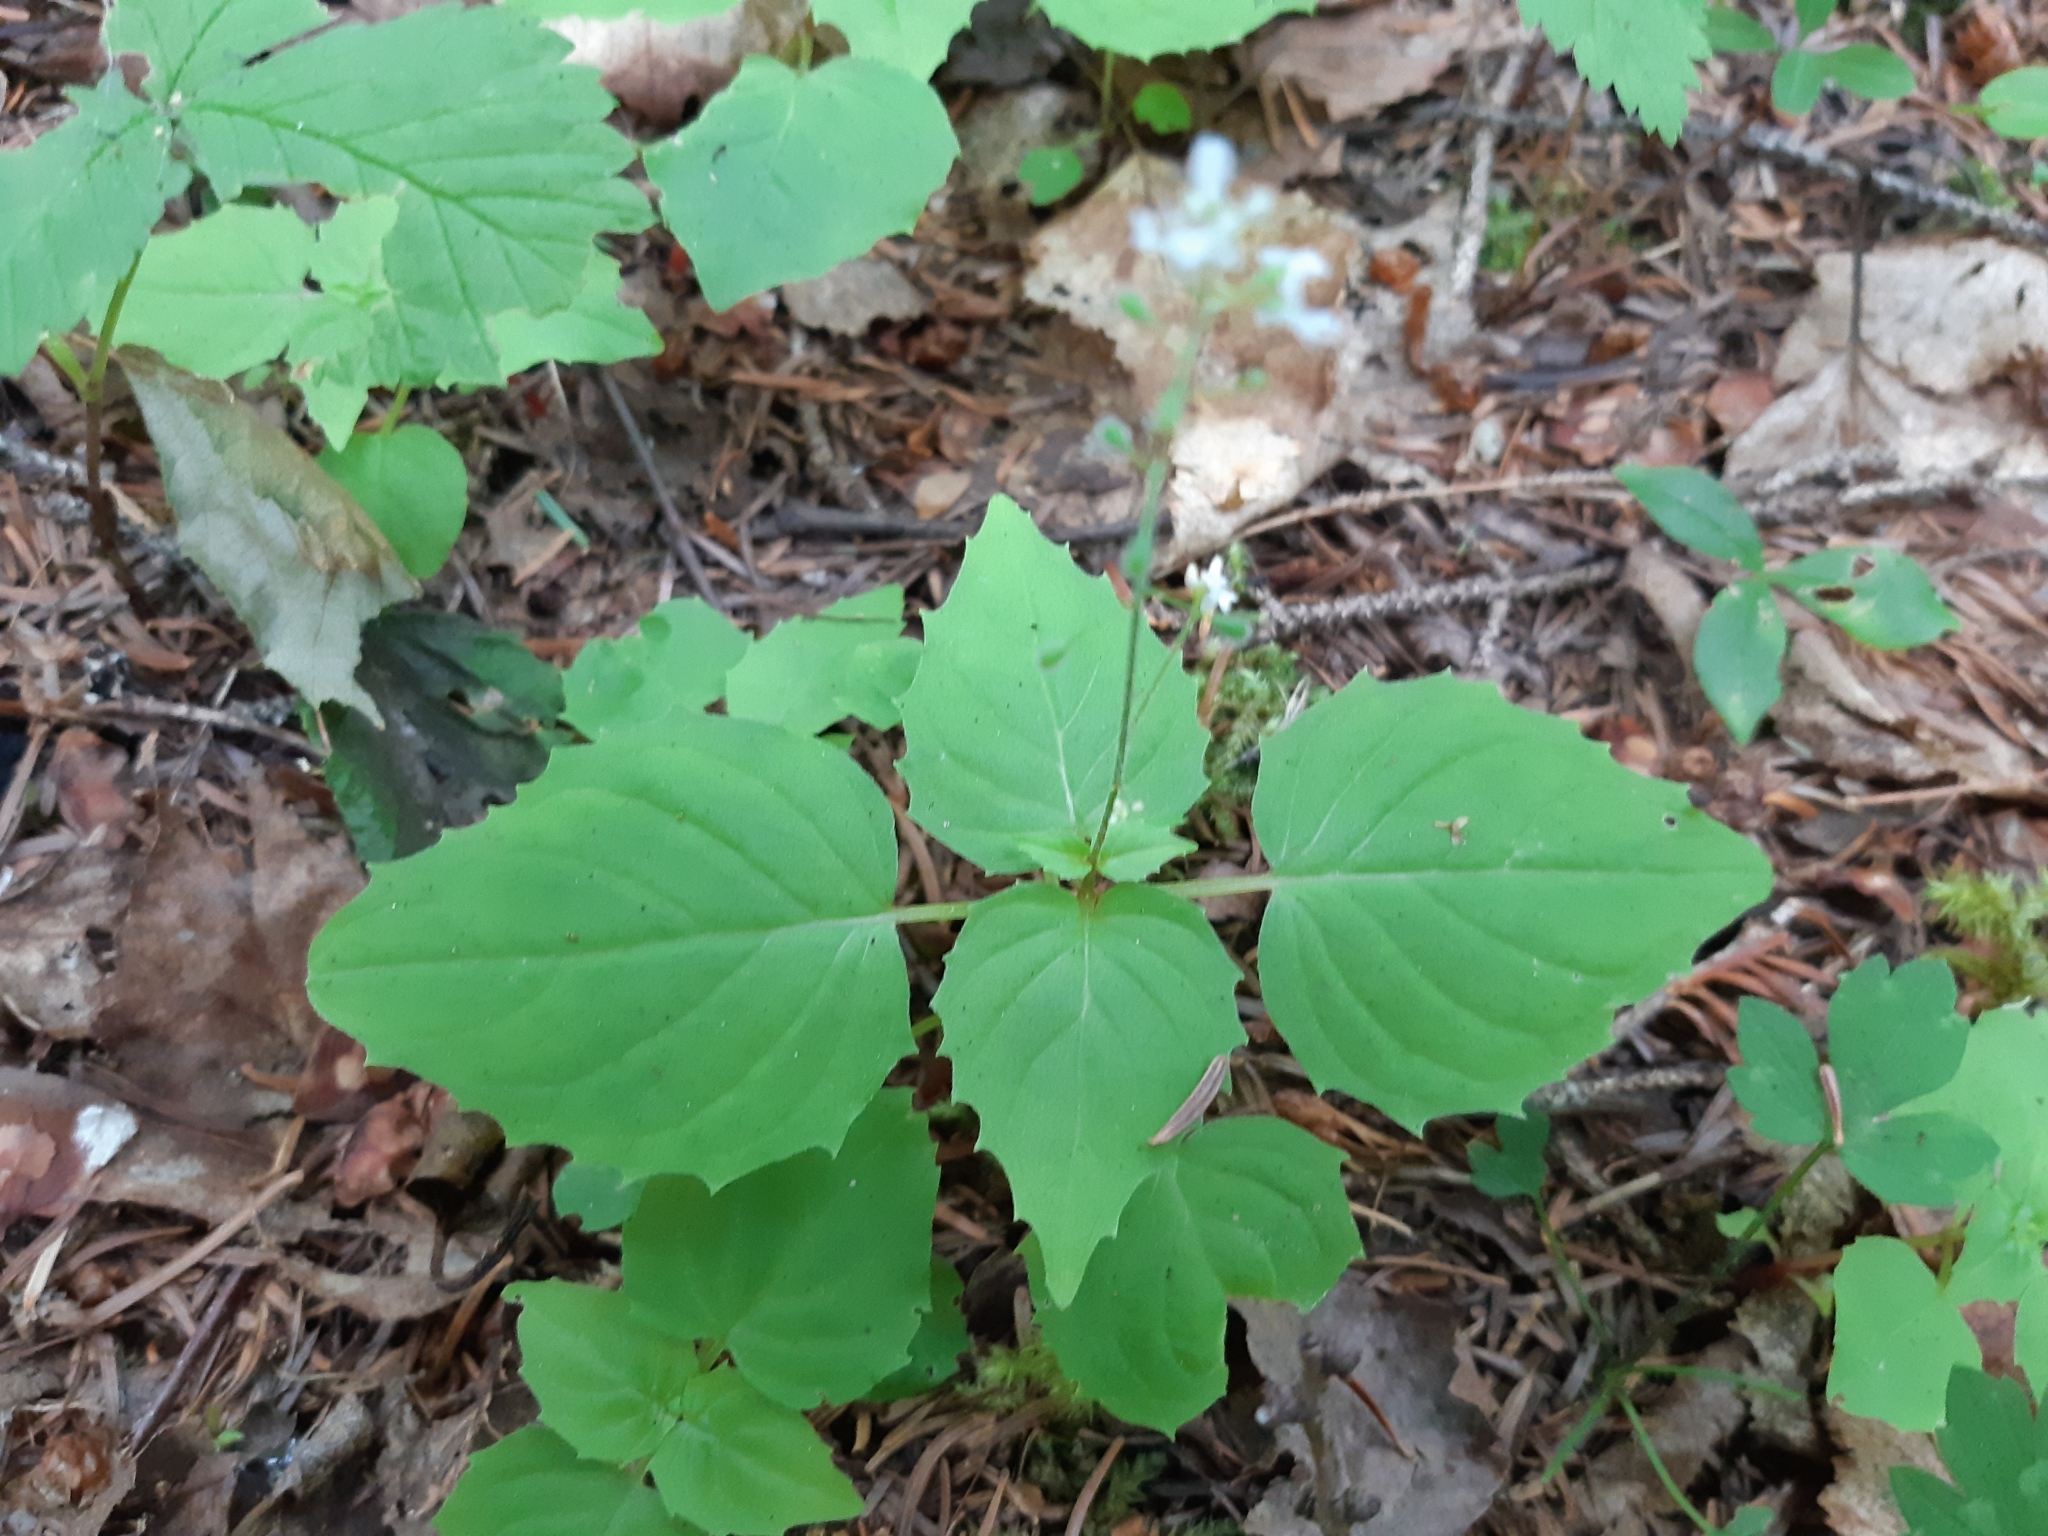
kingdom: Plantae
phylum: Tracheophyta
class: Magnoliopsida
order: Myrtales
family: Onagraceae
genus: Circaea
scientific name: Circaea alpina
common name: Alpine enchanter's-nightshade
